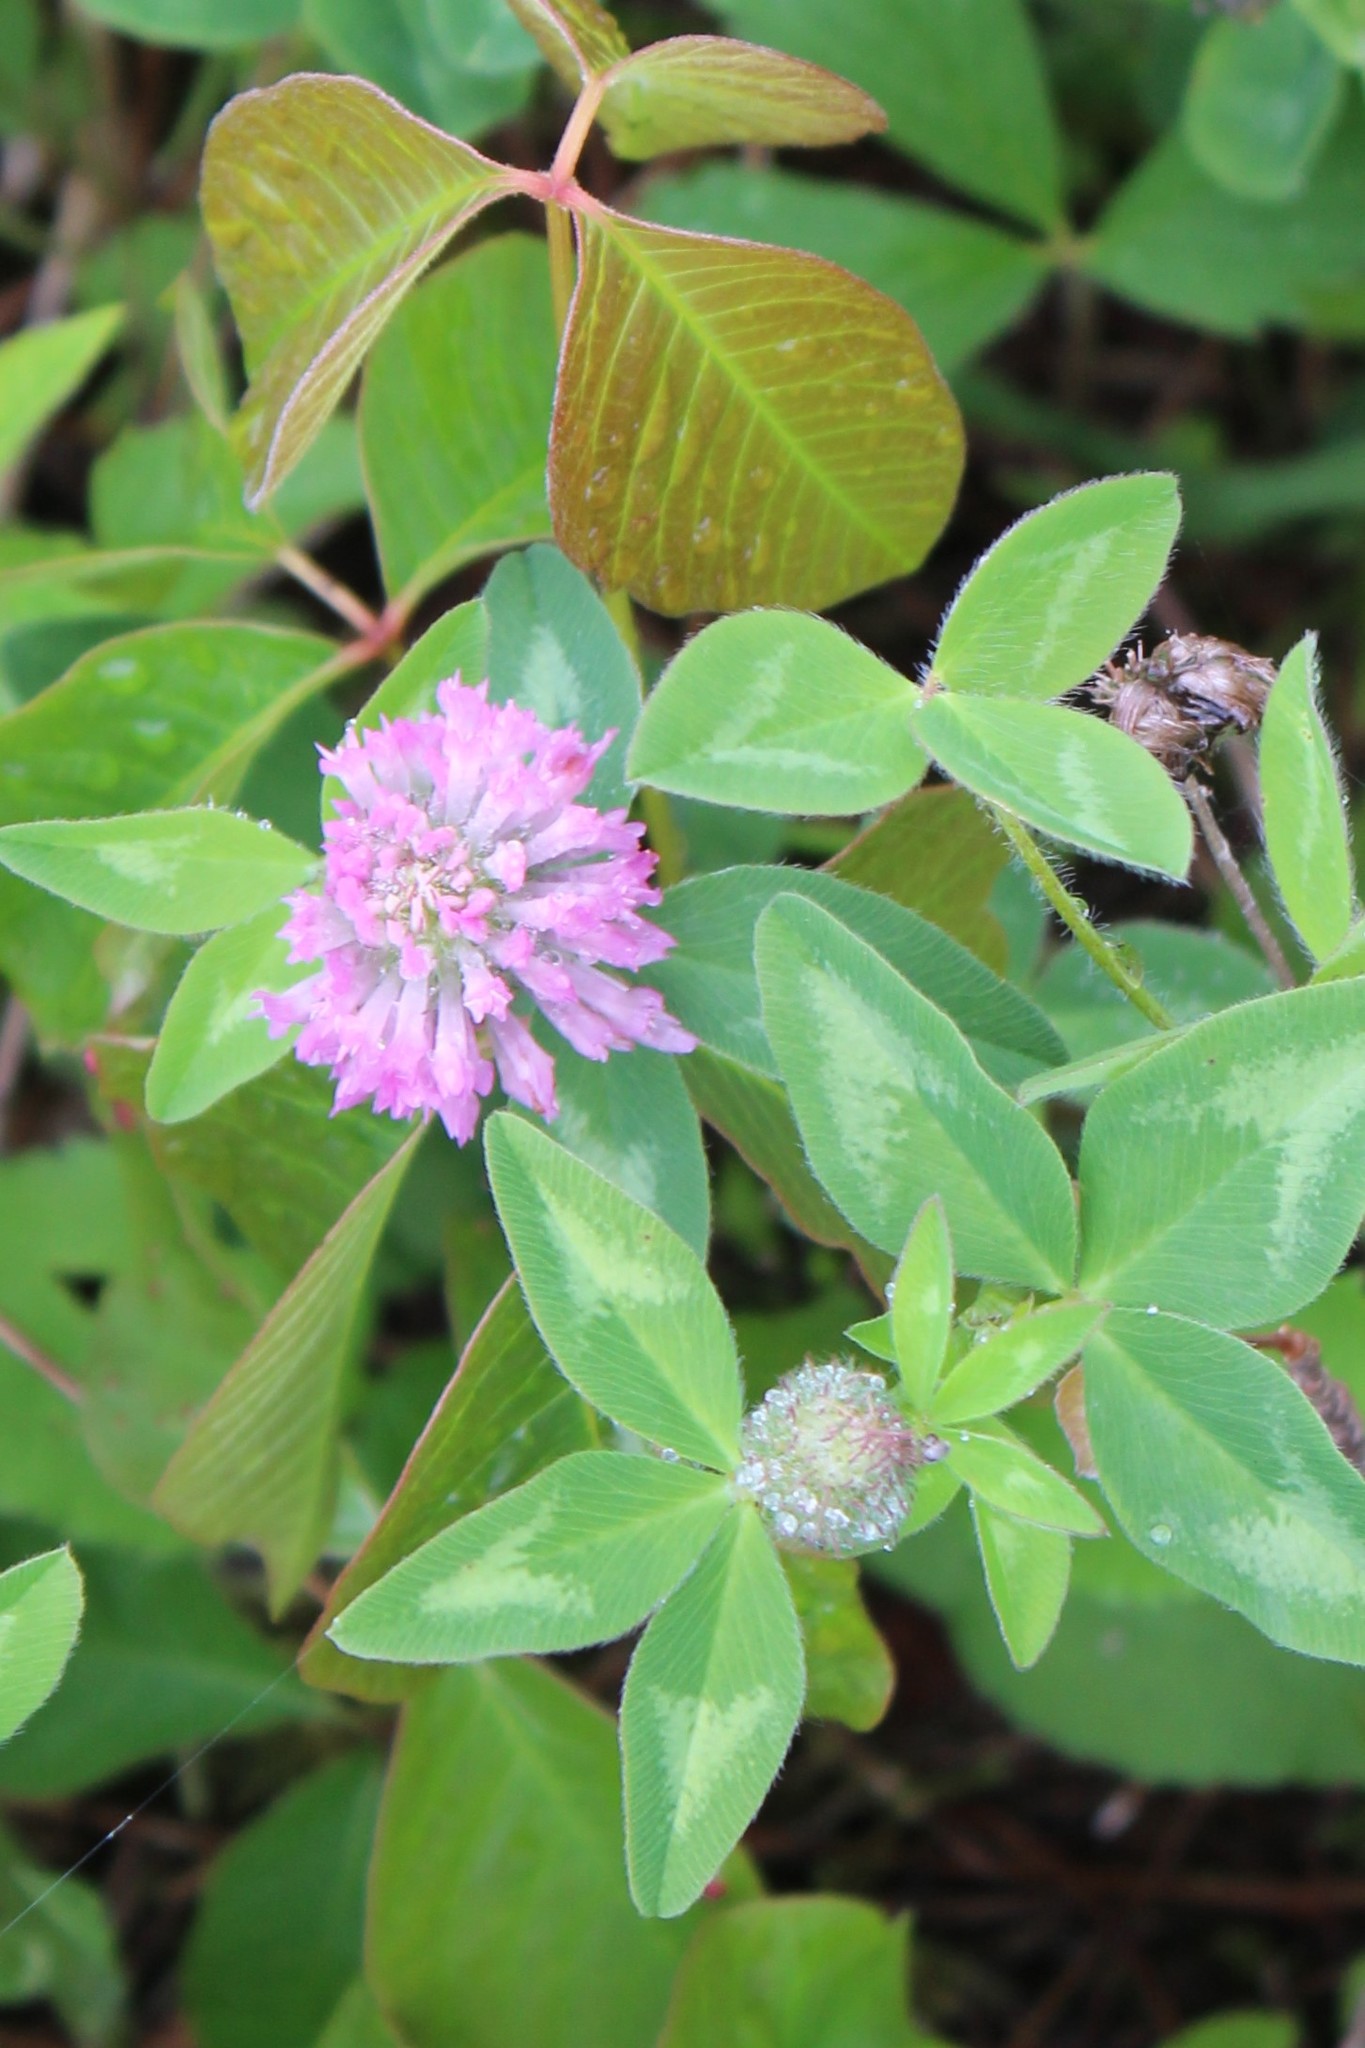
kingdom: Plantae
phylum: Tracheophyta
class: Magnoliopsida
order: Fabales
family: Fabaceae
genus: Trifolium
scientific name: Trifolium pratense
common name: Red clover
